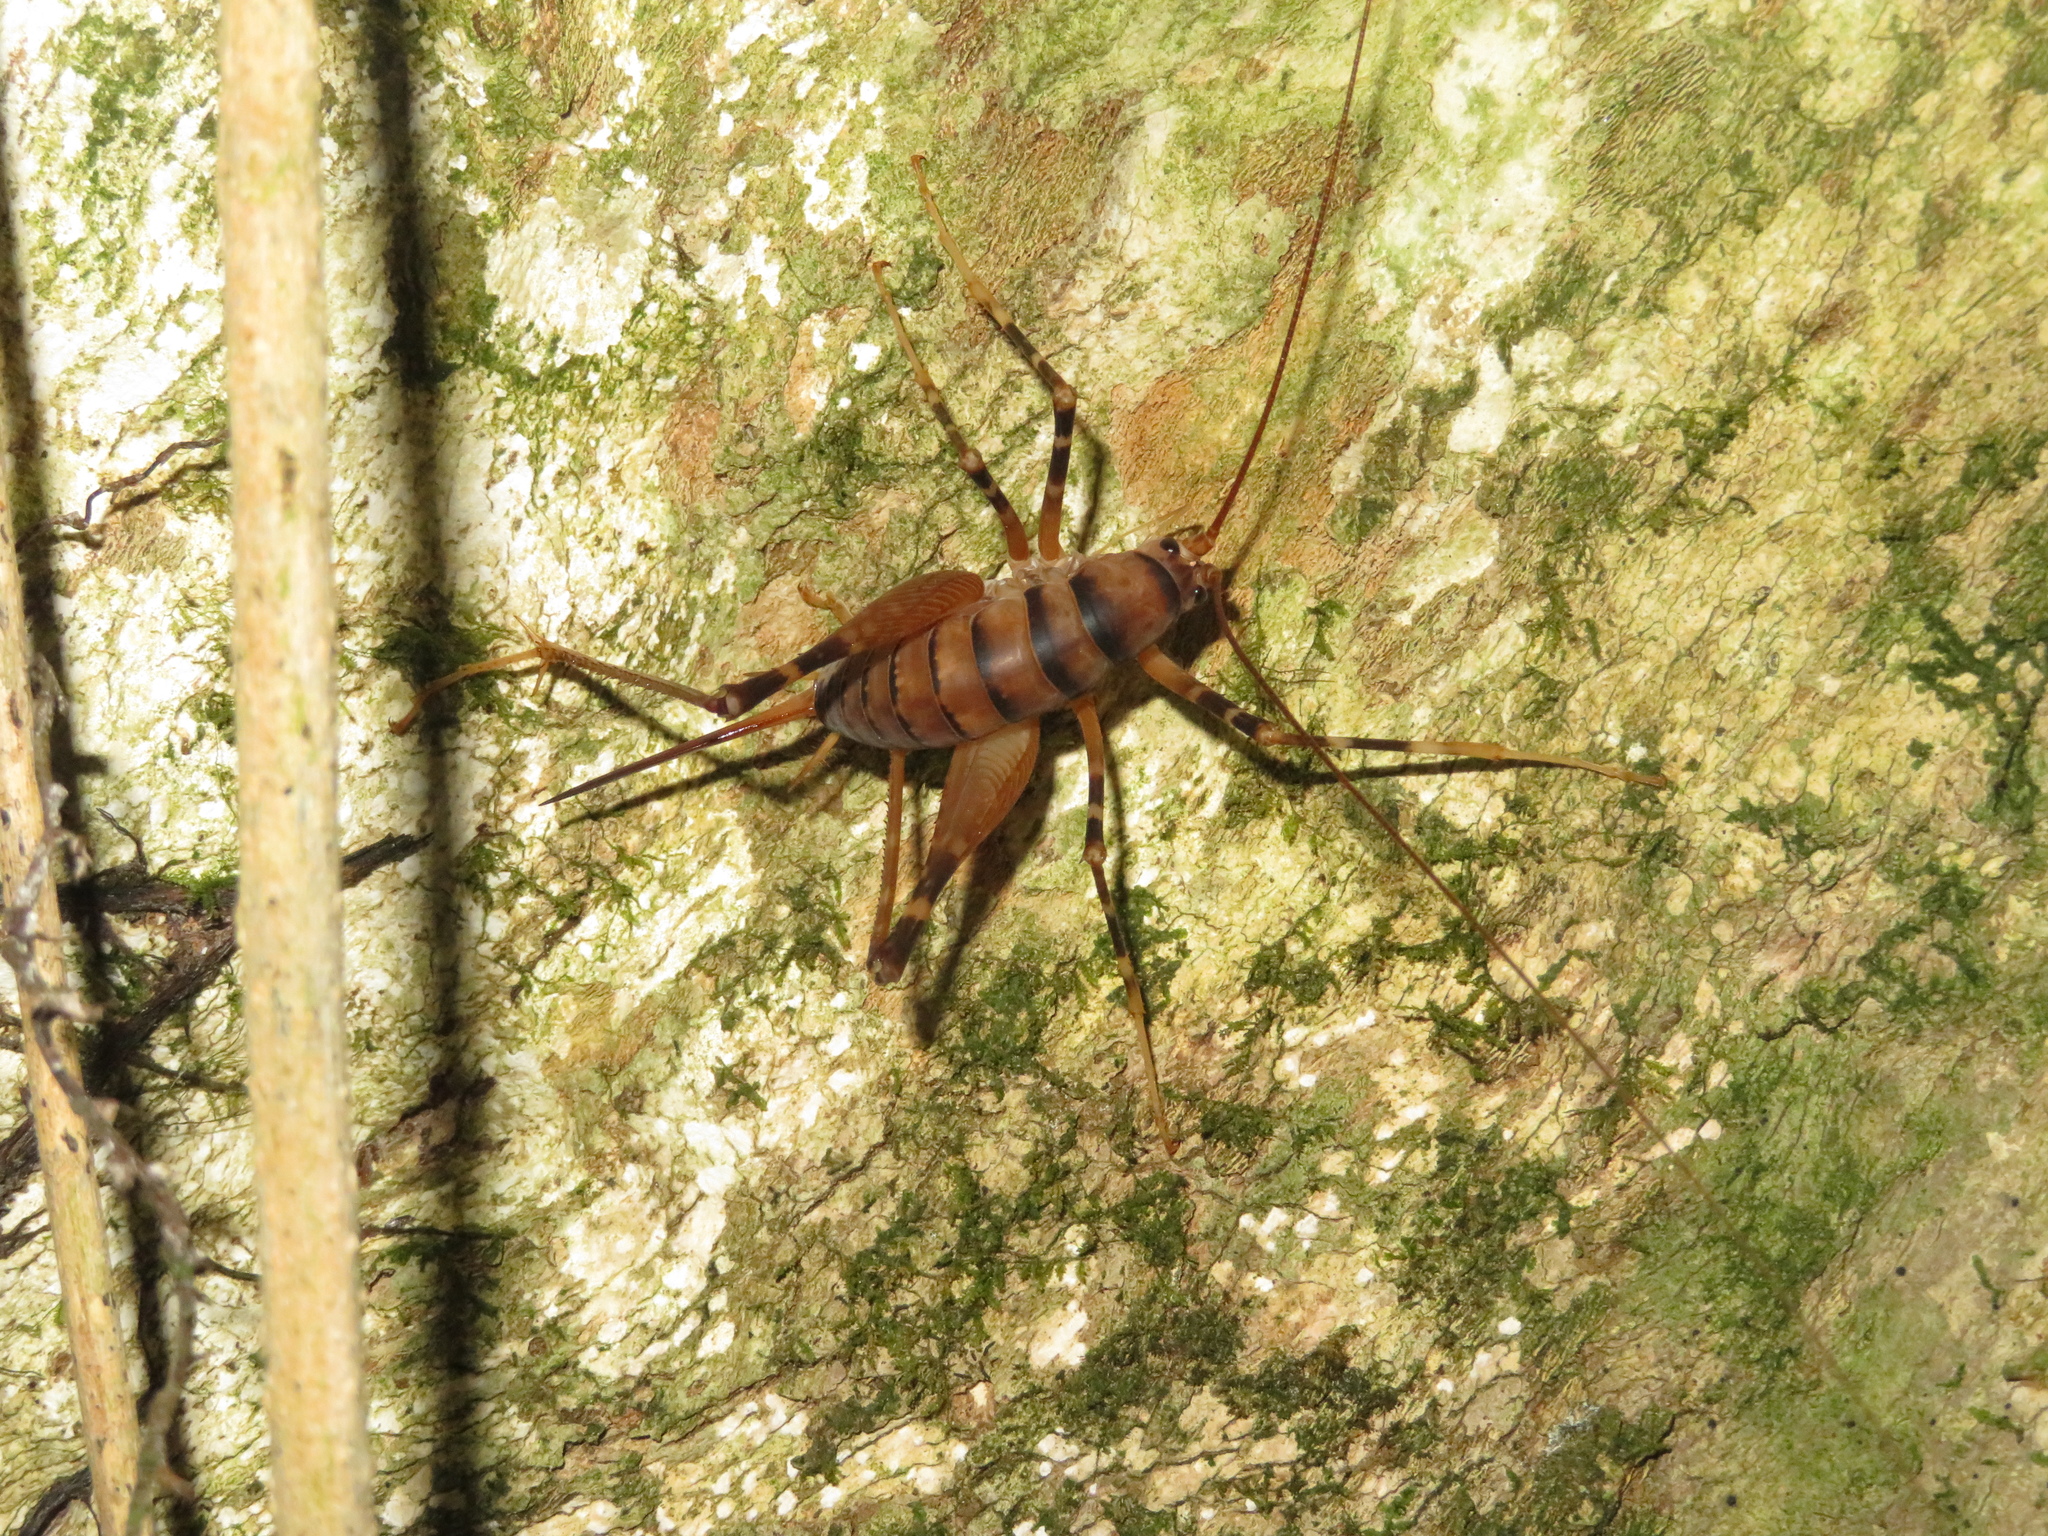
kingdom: Animalia
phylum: Arthropoda
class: Insecta
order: Orthoptera
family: Rhaphidophoridae
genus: Pachyrhamma
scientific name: Pachyrhamma edwardsii
